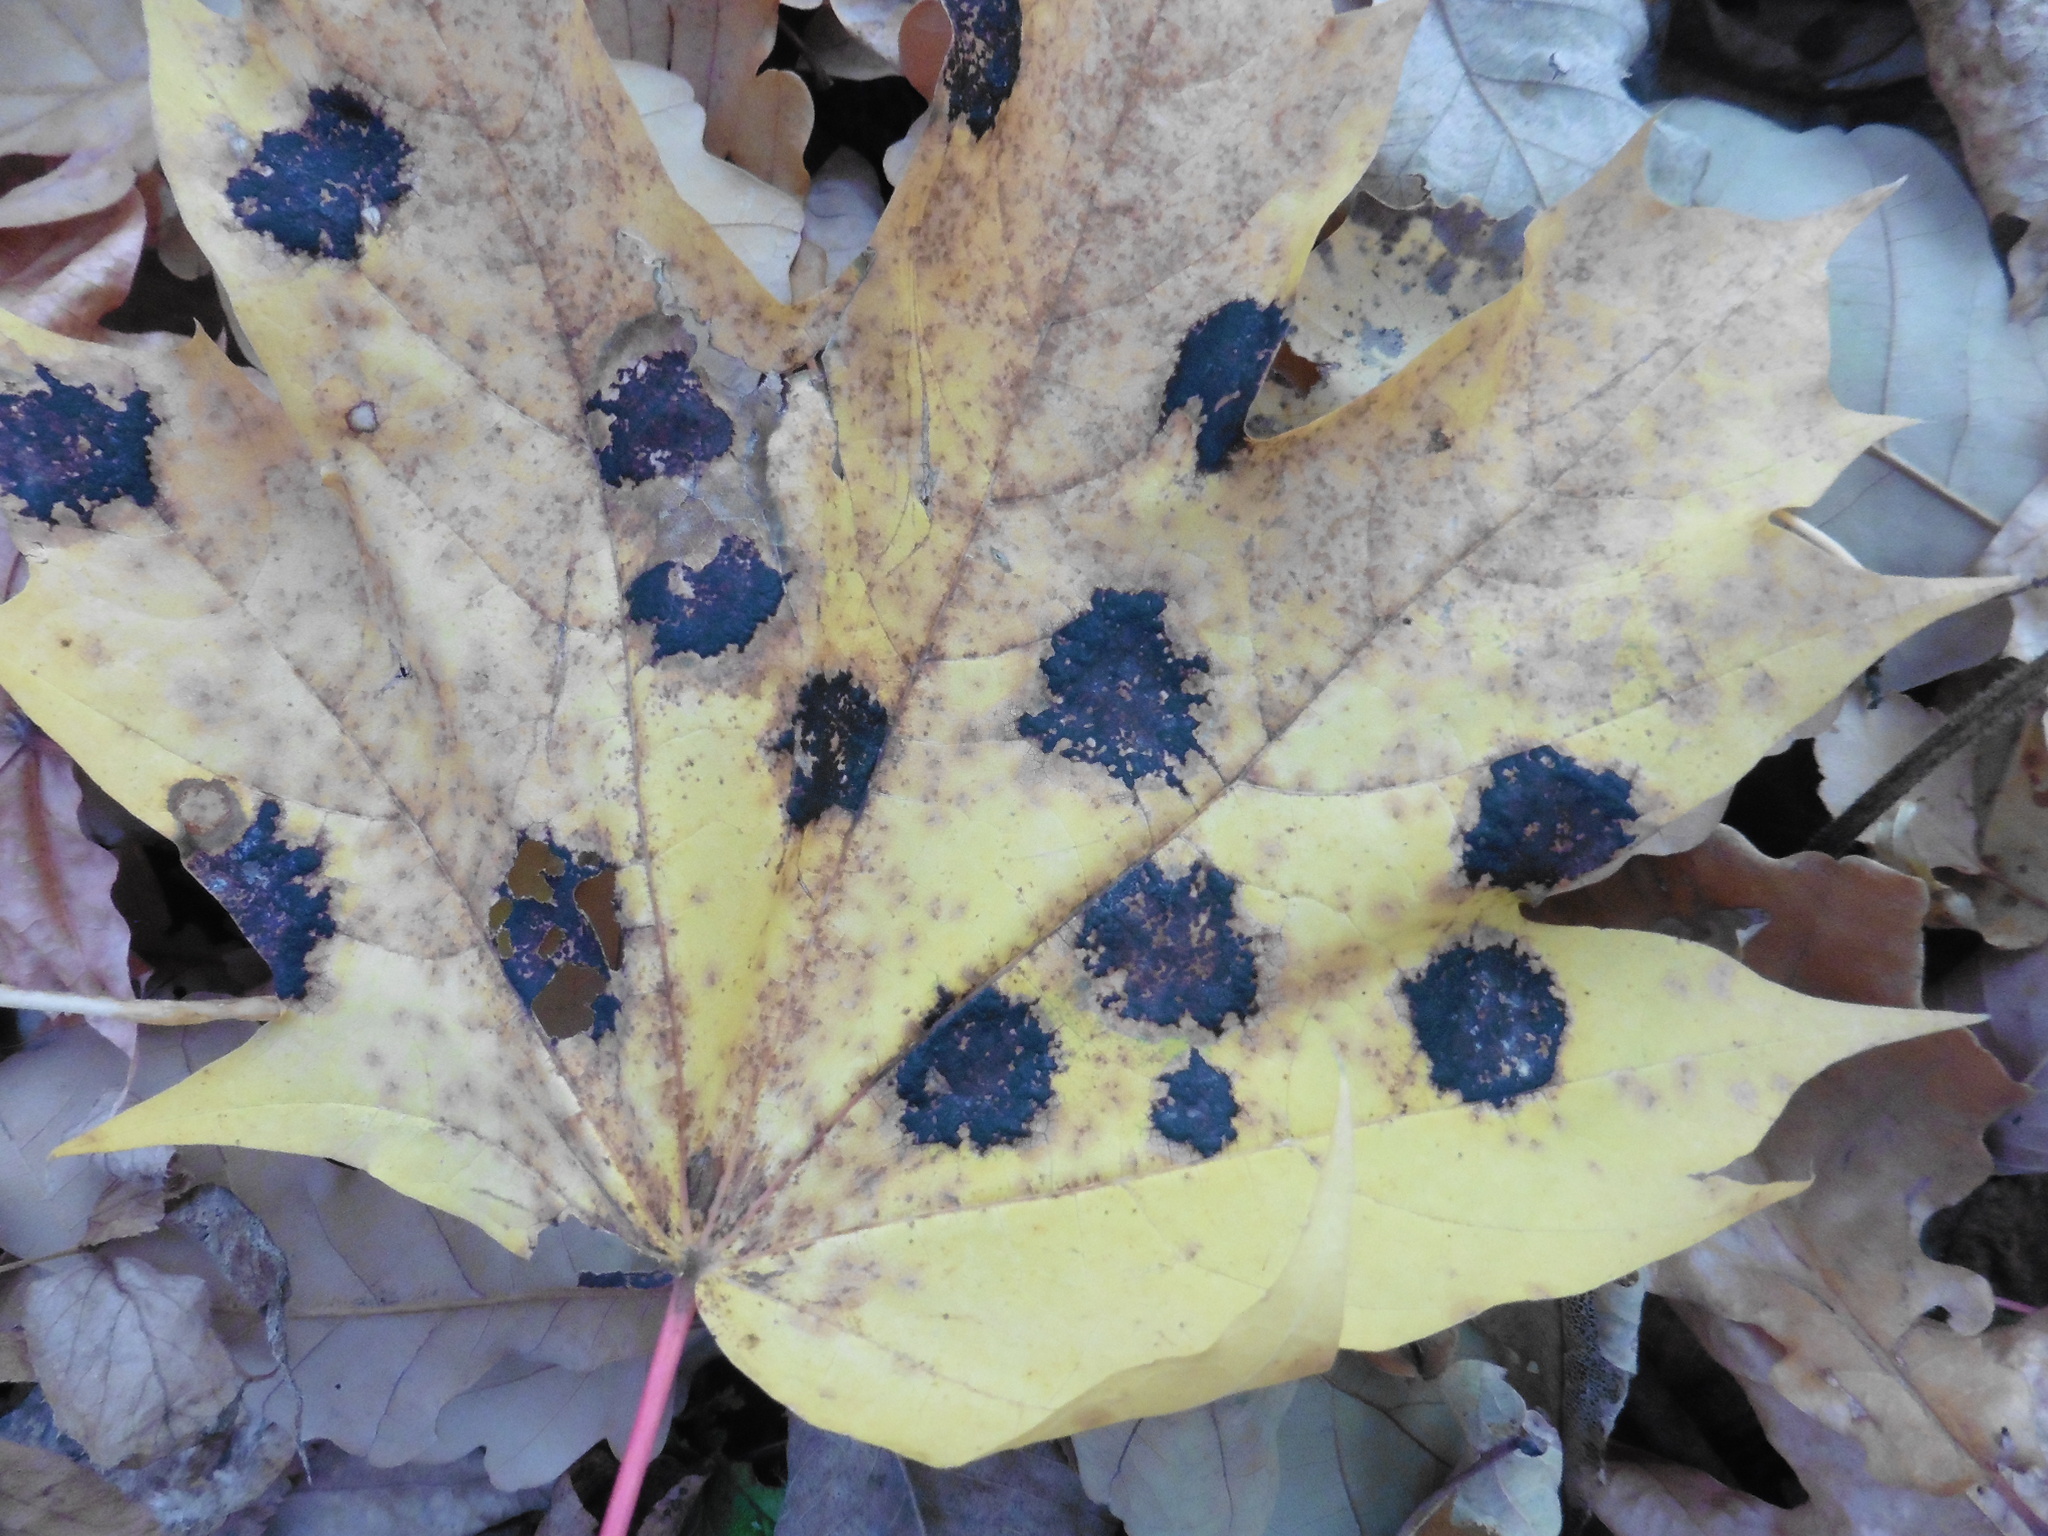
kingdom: Fungi
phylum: Ascomycota
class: Leotiomycetes
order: Rhytismatales
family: Rhytismataceae
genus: Rhytisma
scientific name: Rhytisma acerinum
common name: European tar spot
